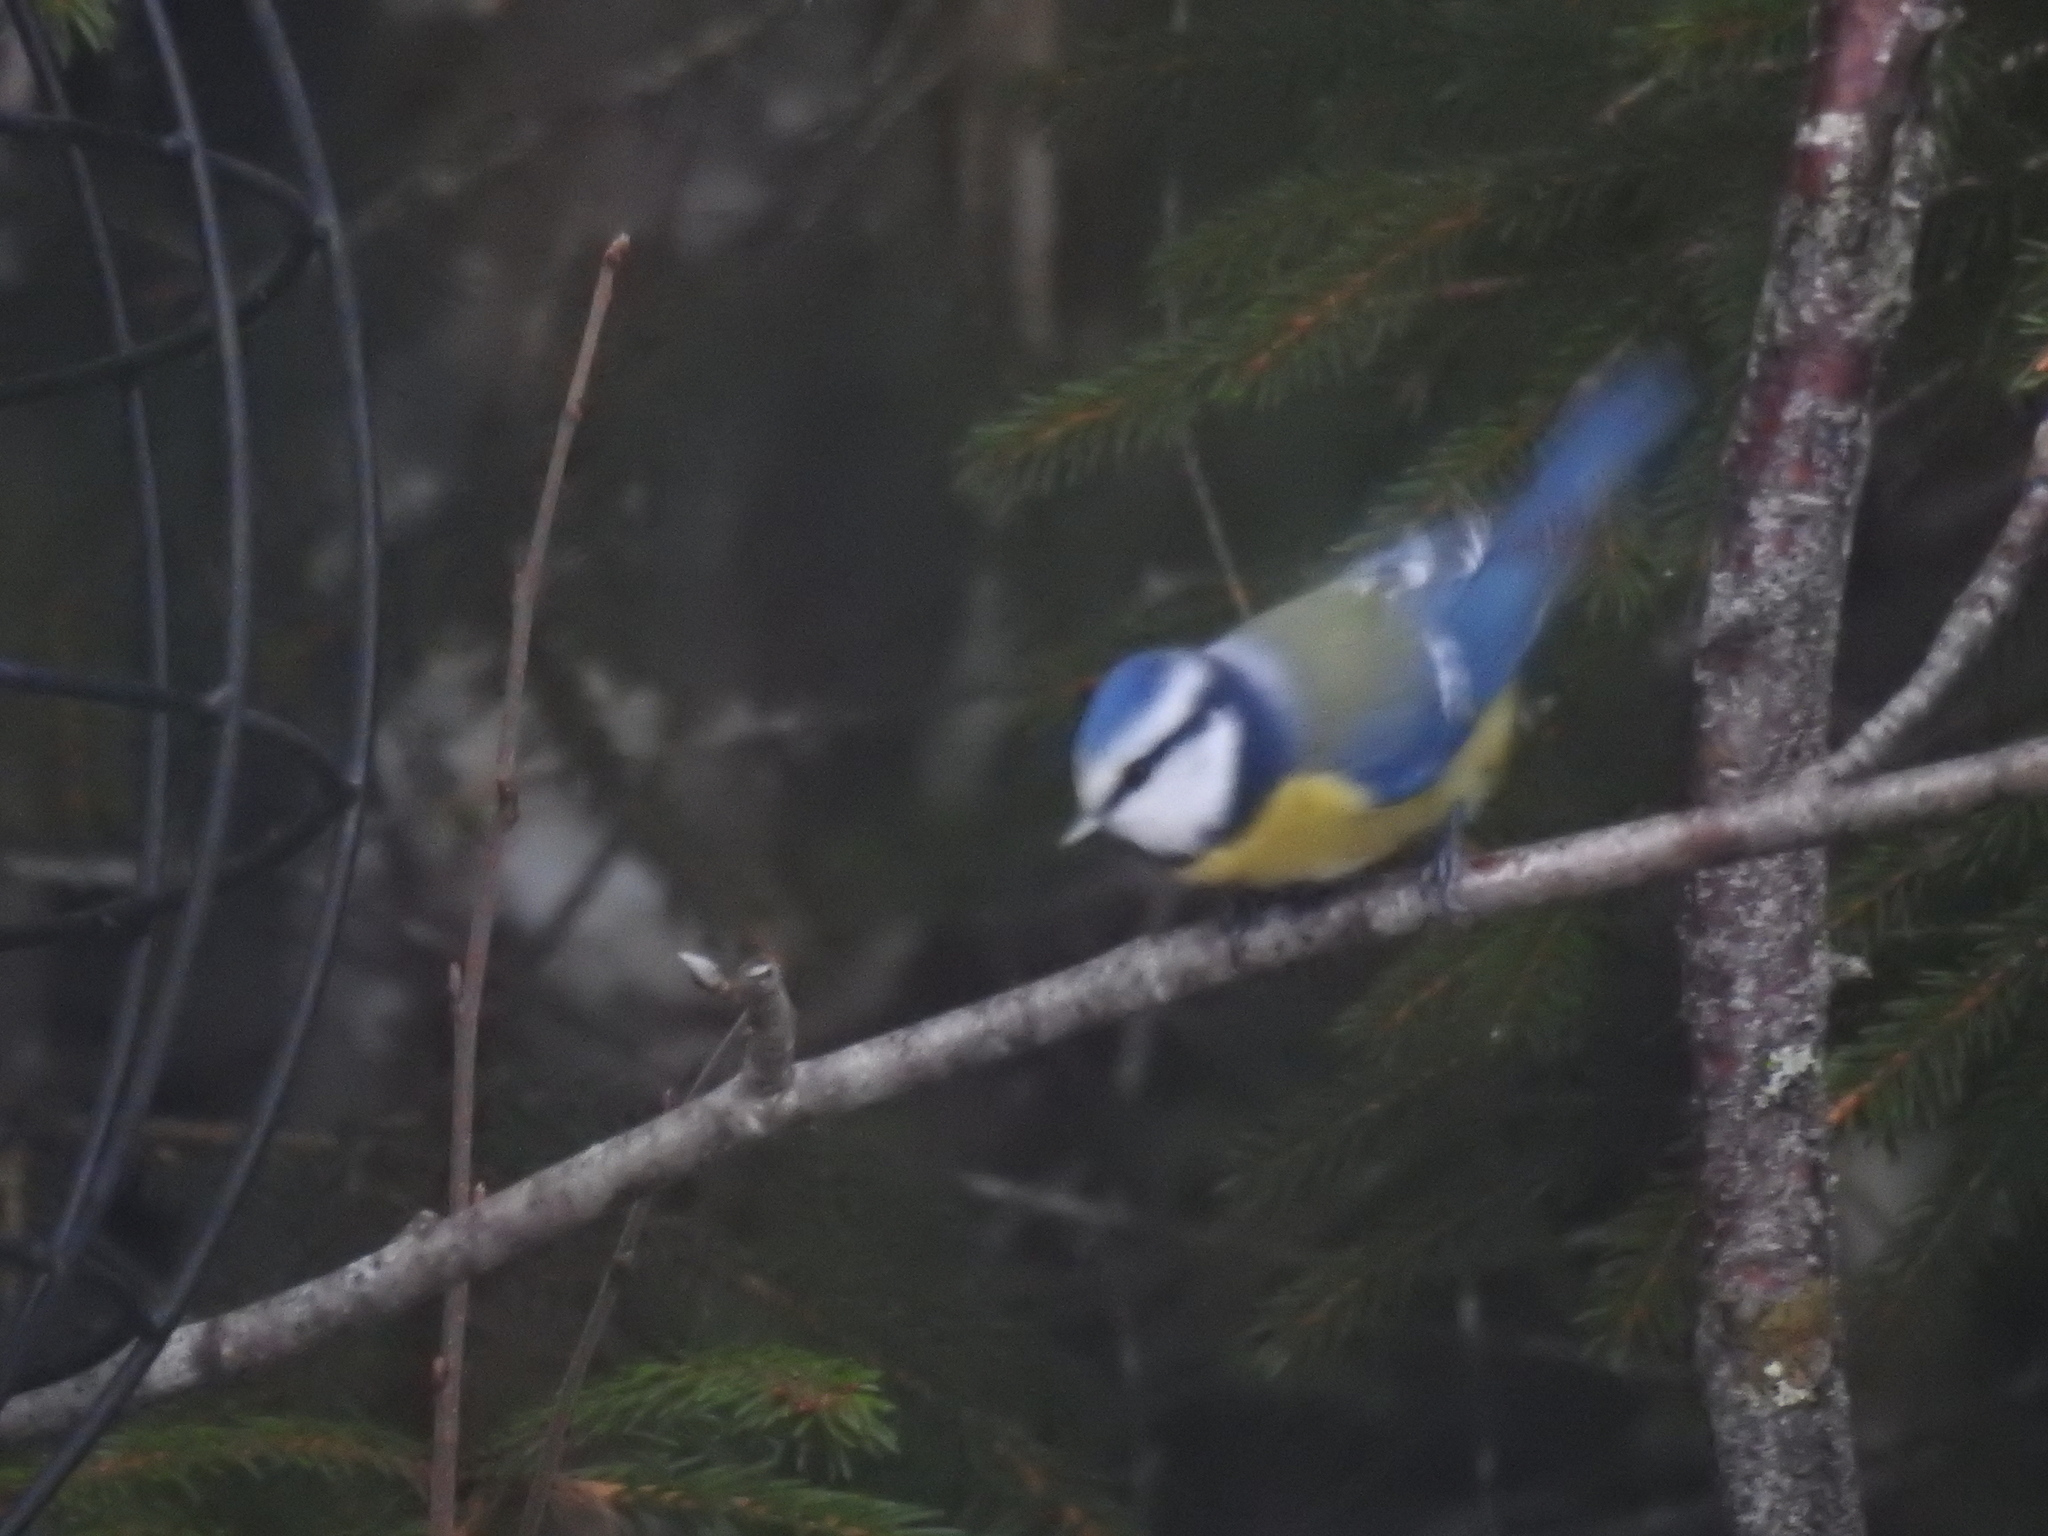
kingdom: Animalia
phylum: Chordata
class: Aves
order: Passeriformes
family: Paridae
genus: Cyanistes
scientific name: Cyanistes caeruleus
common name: Eurasian blue tit
